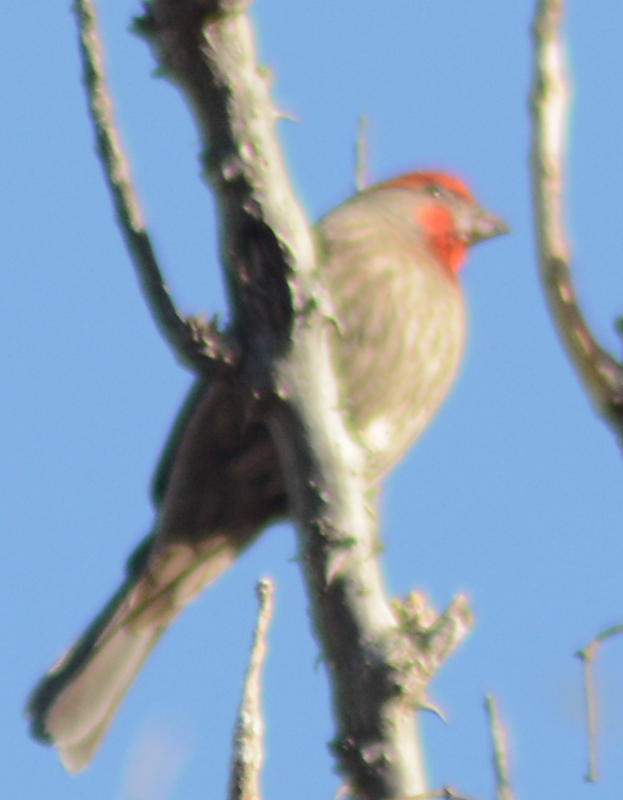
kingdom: Animalia
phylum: Chordata
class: Aves
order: Passeriformes
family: Fringillidae
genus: Haemorhous
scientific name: Haemorhous mexicanus
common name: House finch
